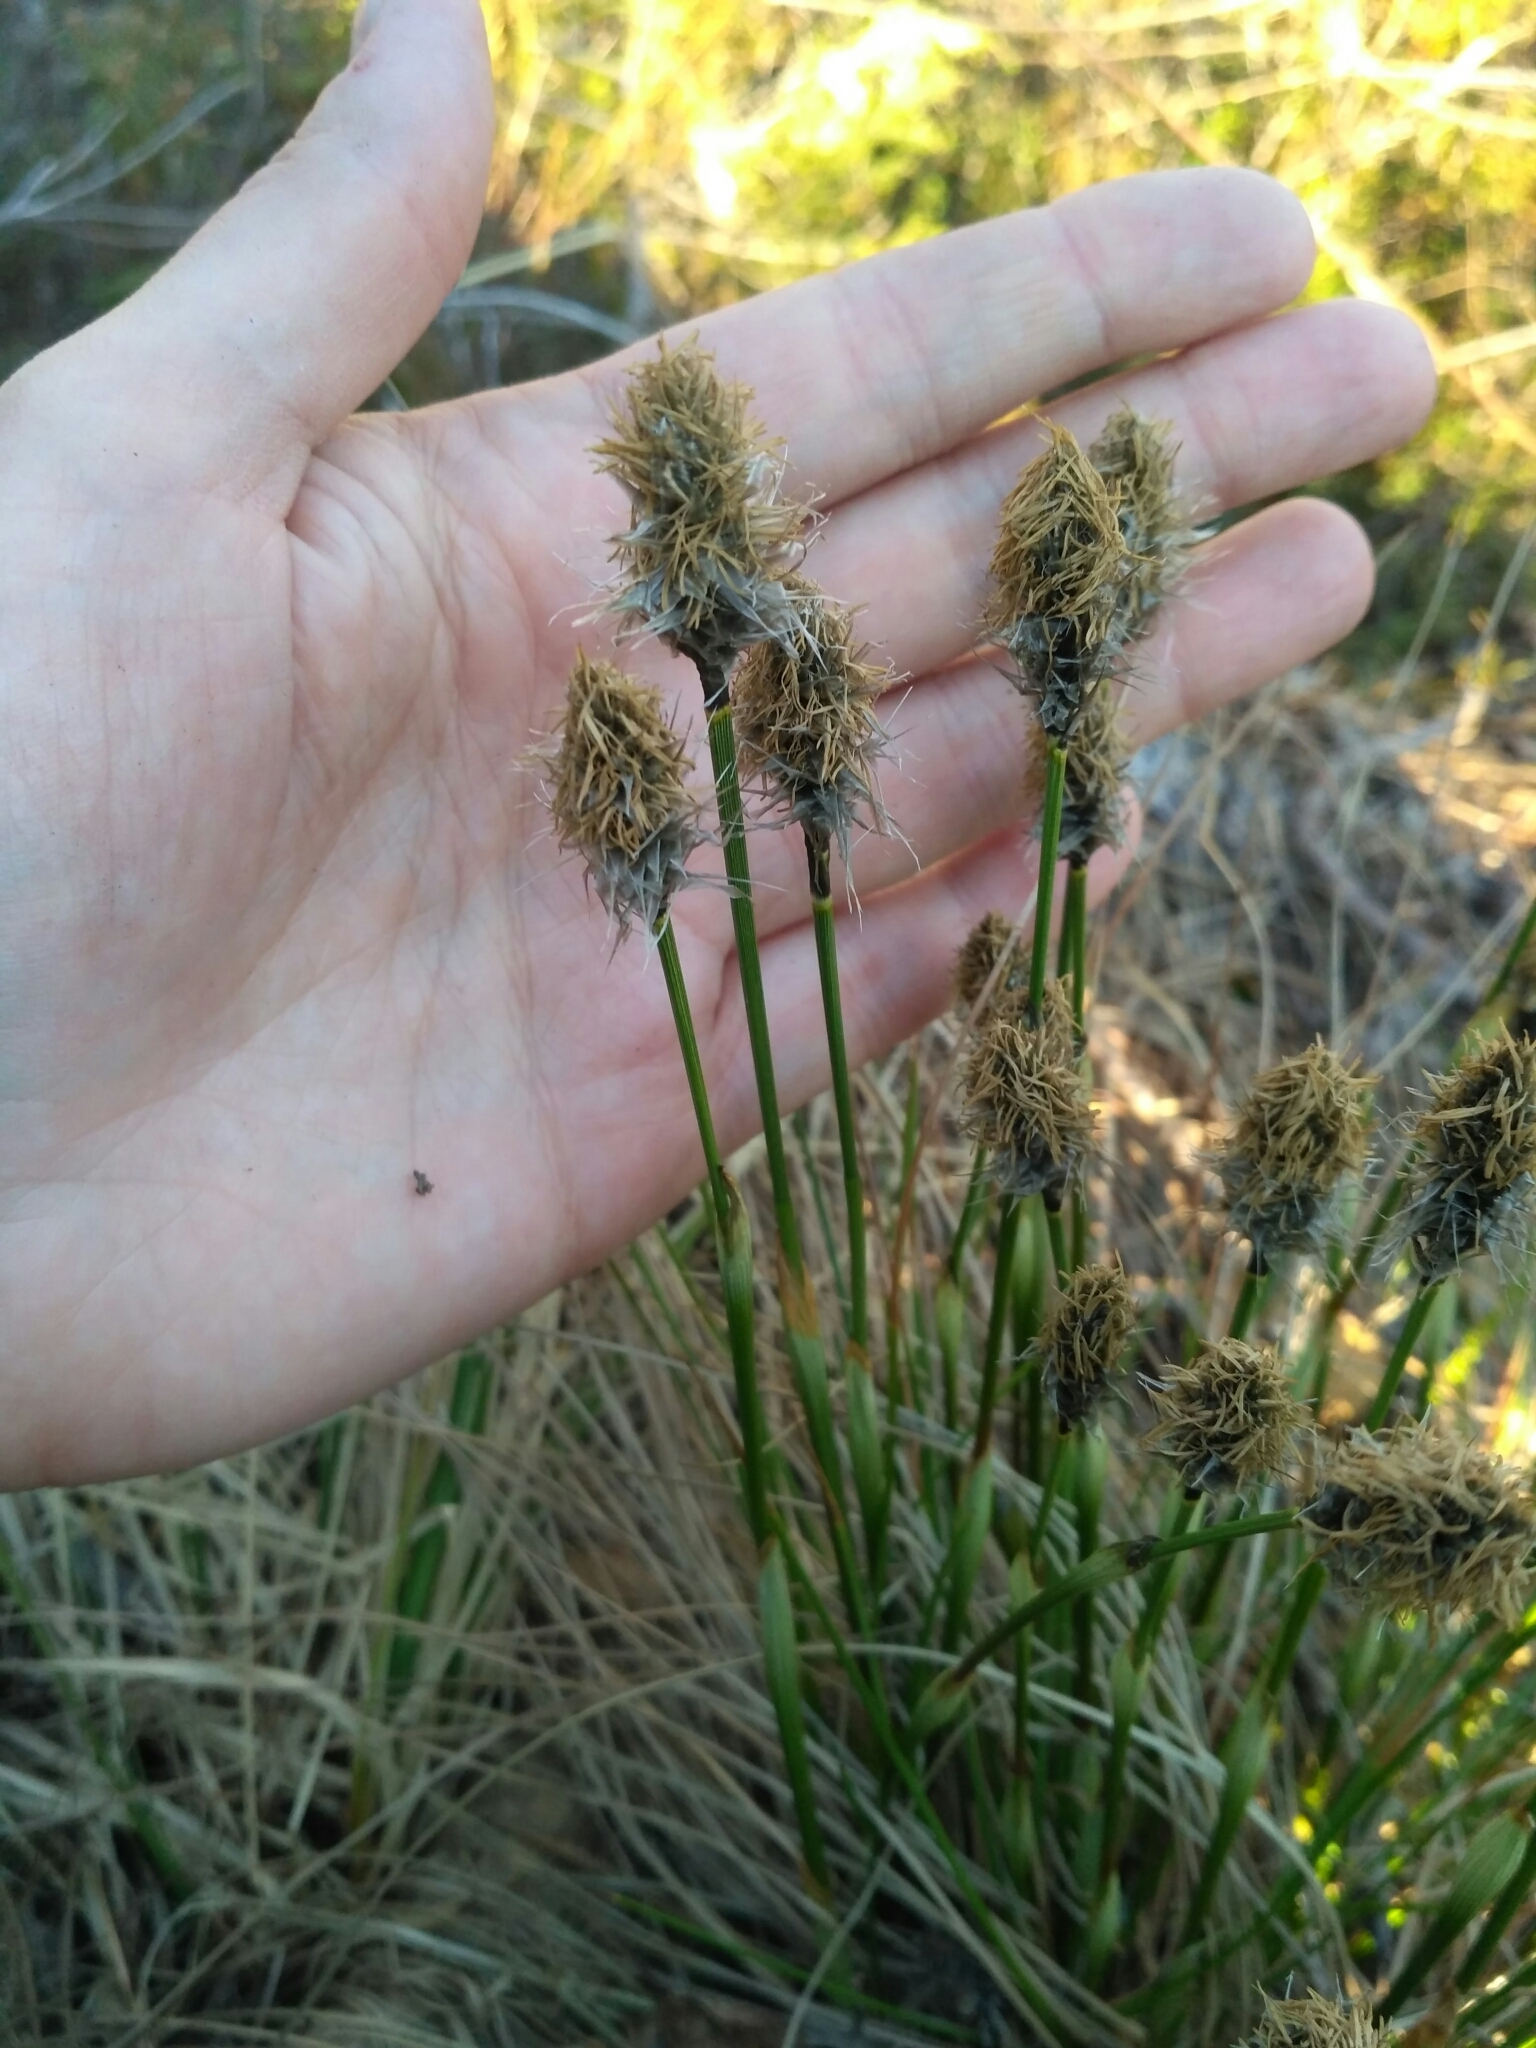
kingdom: Plantae
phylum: Tracheophyta
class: Liliopsida
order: Poales
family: Cyperaceae
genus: Eriophorum
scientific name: Eriophorum vaginatum
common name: Hare's-tail cottongrass
